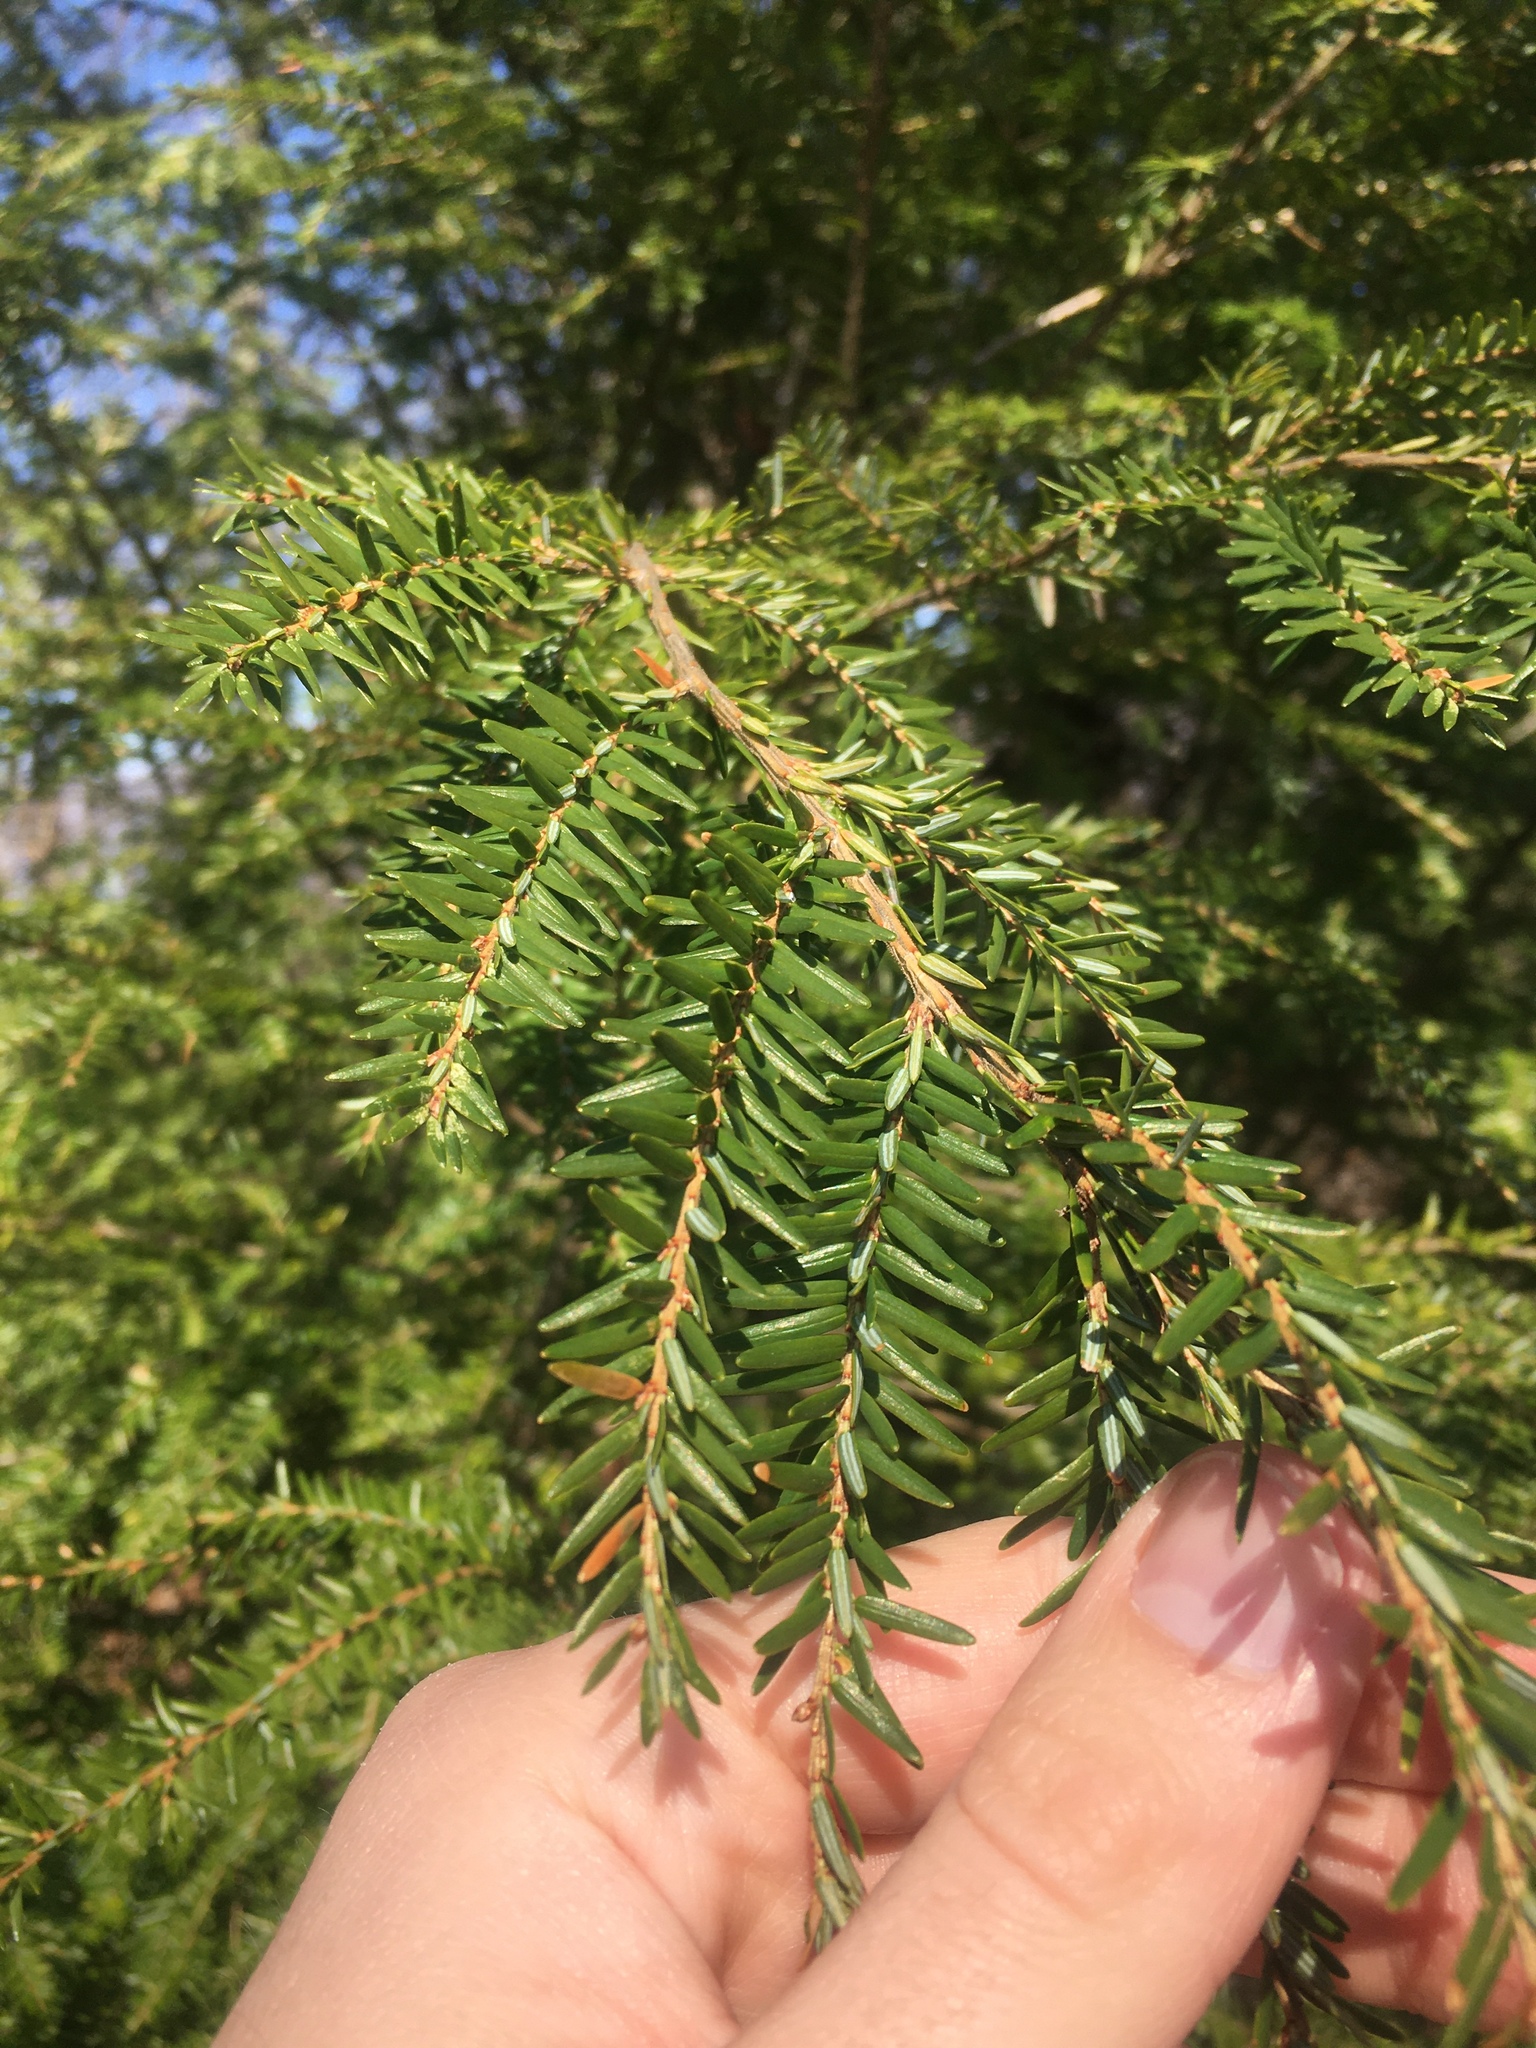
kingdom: Plantae
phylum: Tracheophyta
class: Pinopsida
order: Pinales
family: Pinaceae
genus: Tsuga
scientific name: Tsuga canadensis
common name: Eastern hemlock
